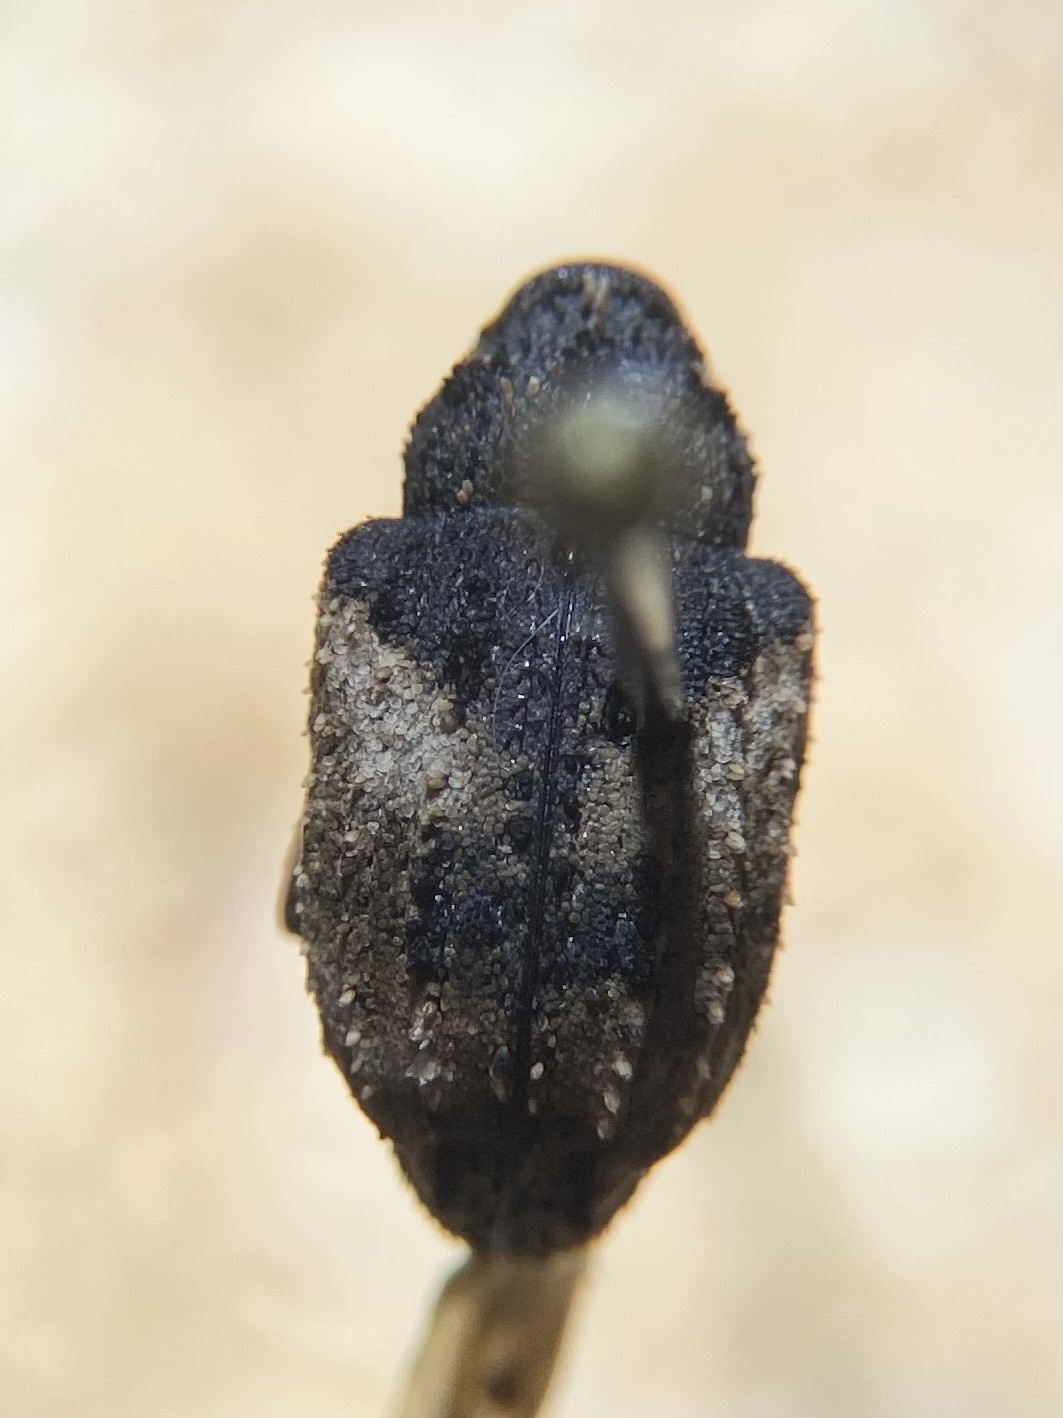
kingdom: Animalia
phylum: Arthropoda
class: Insecta
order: Coleoptera
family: Curculionidae
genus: Cryptorhynchus
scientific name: Cryptorhynchus fuscatus
